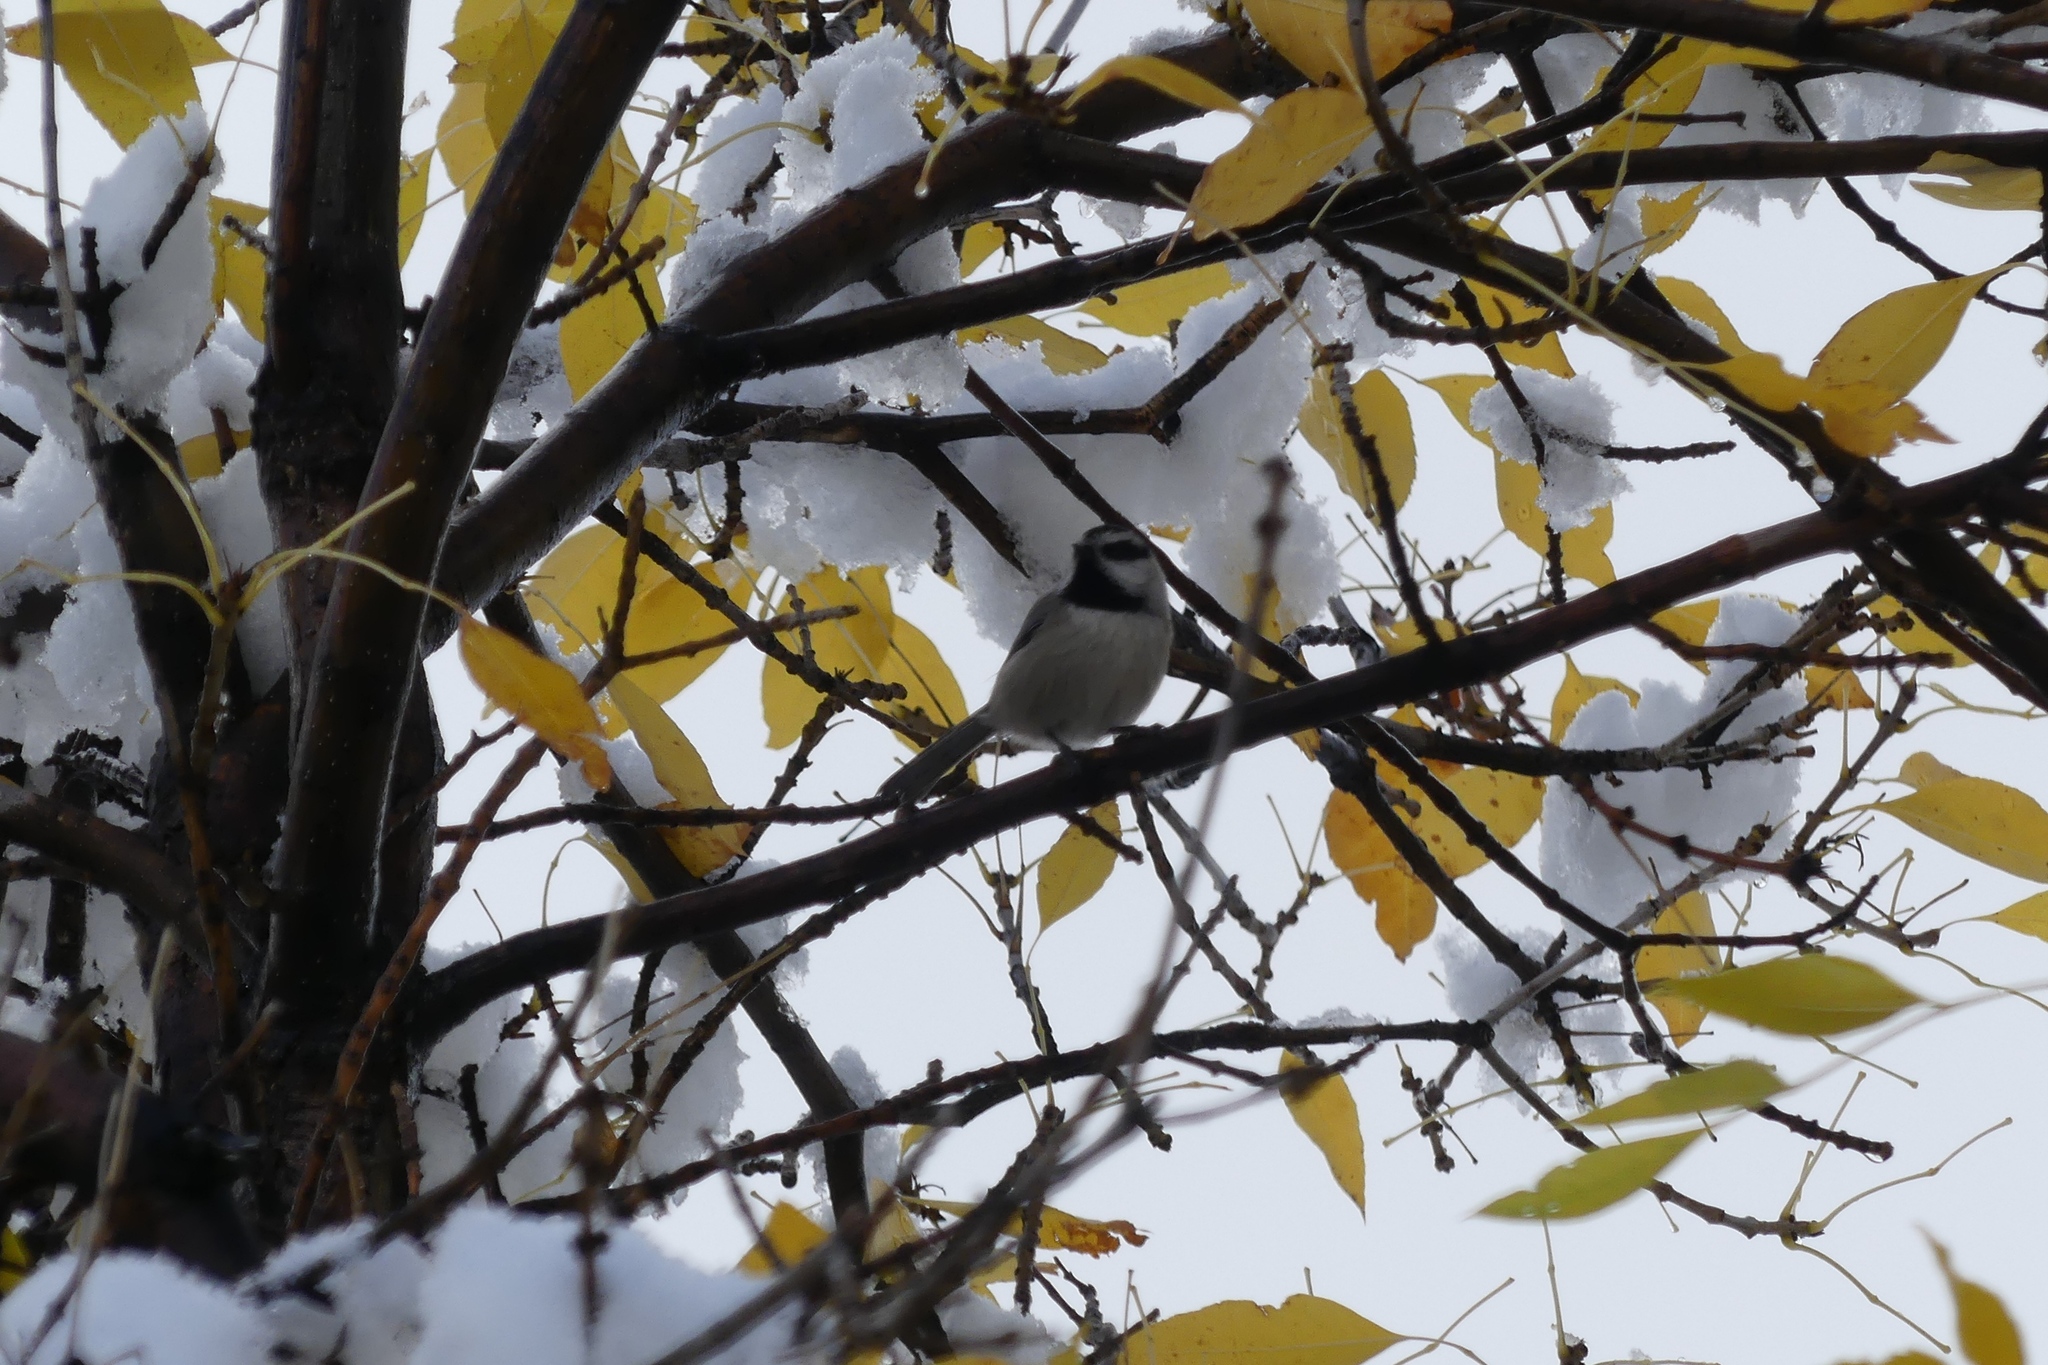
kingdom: Animalia
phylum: Chordata
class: Aves
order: Passeriformes
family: Paridae
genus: Poecile
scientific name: Poecile gambeli
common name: Mountain chickadee
